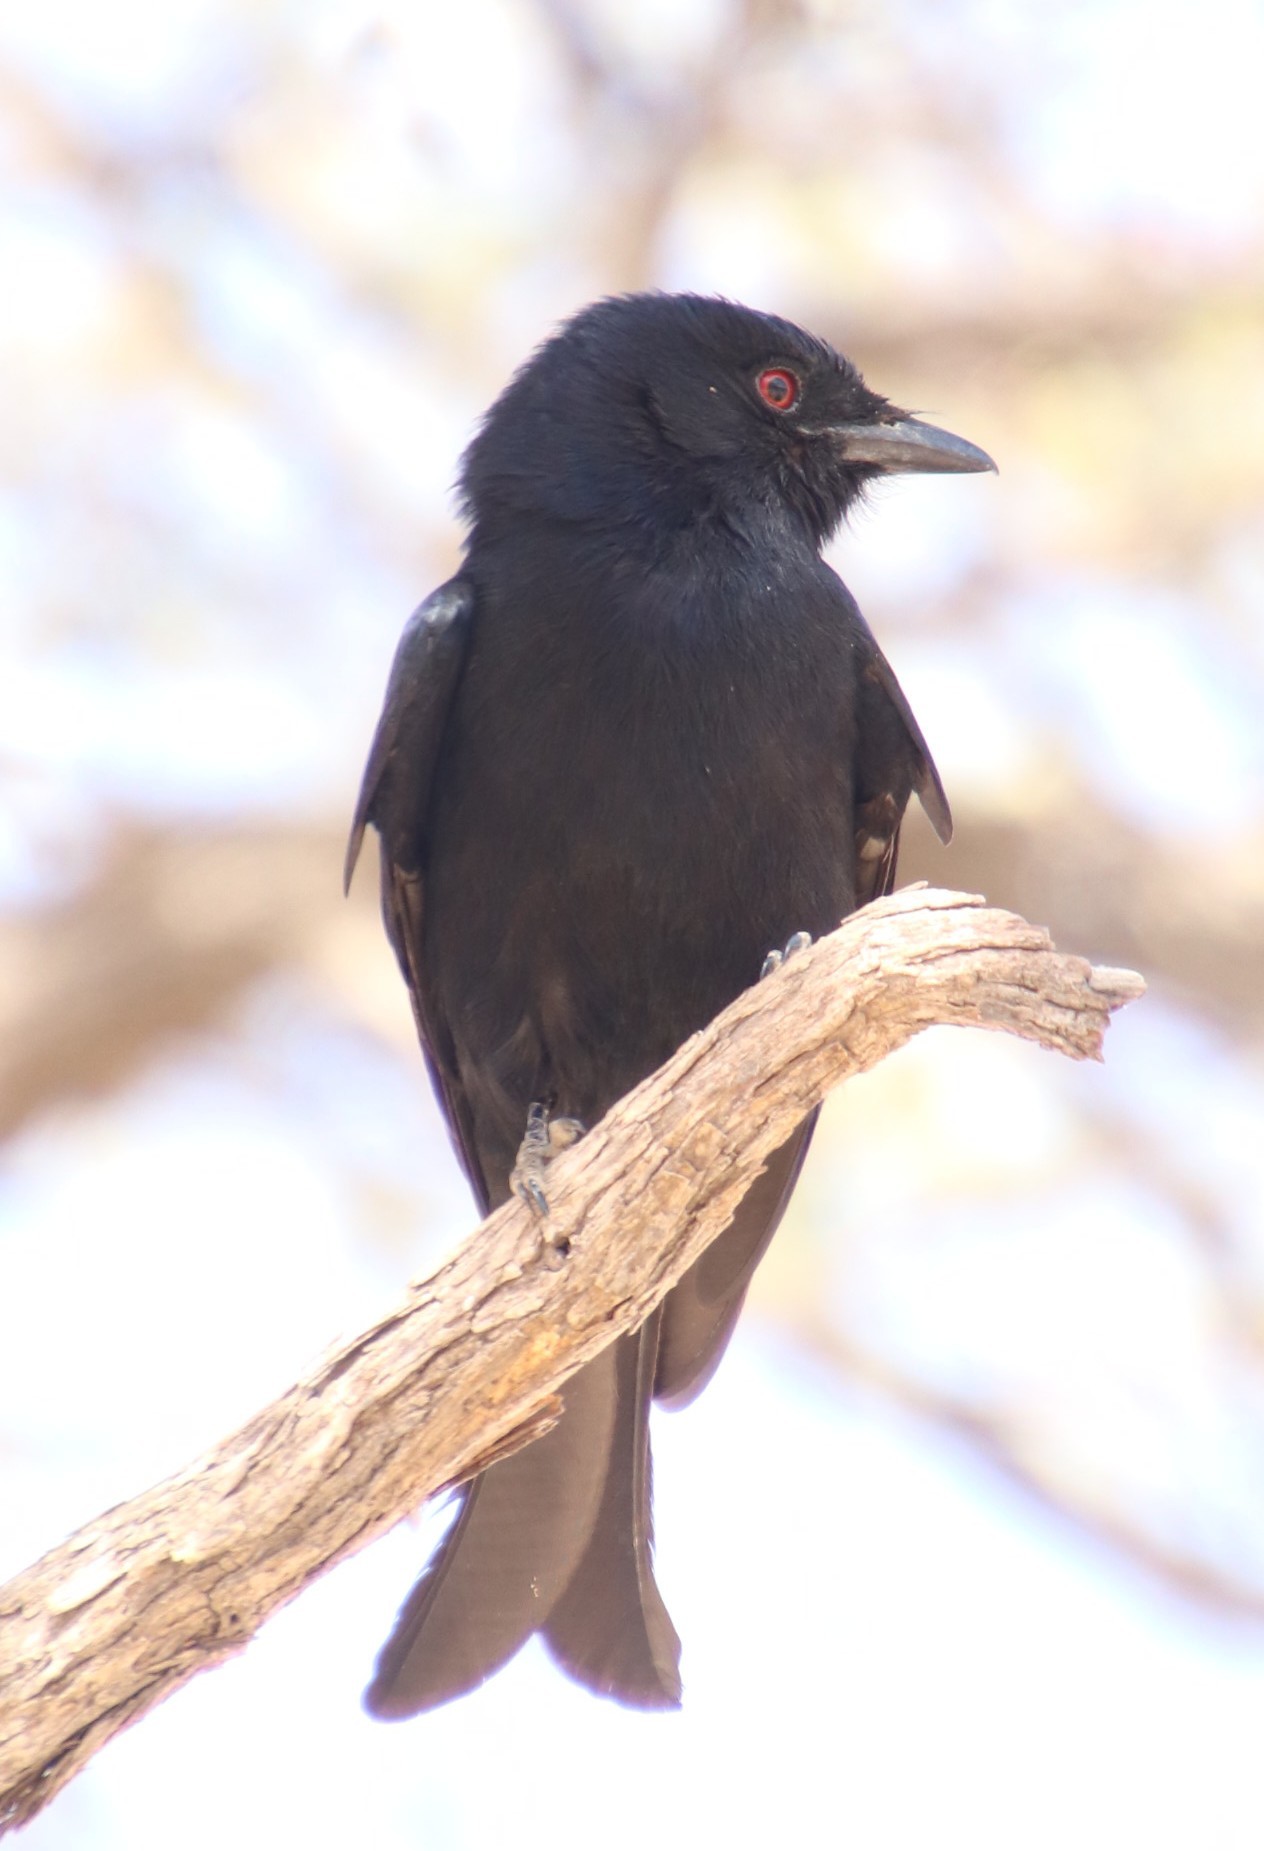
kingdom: Animalia
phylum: Chordata
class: Aves
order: Passeriformes
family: Dicruridae
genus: Dicrurus
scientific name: Dicrurus adsimilis
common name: Fork-tailed drongo
